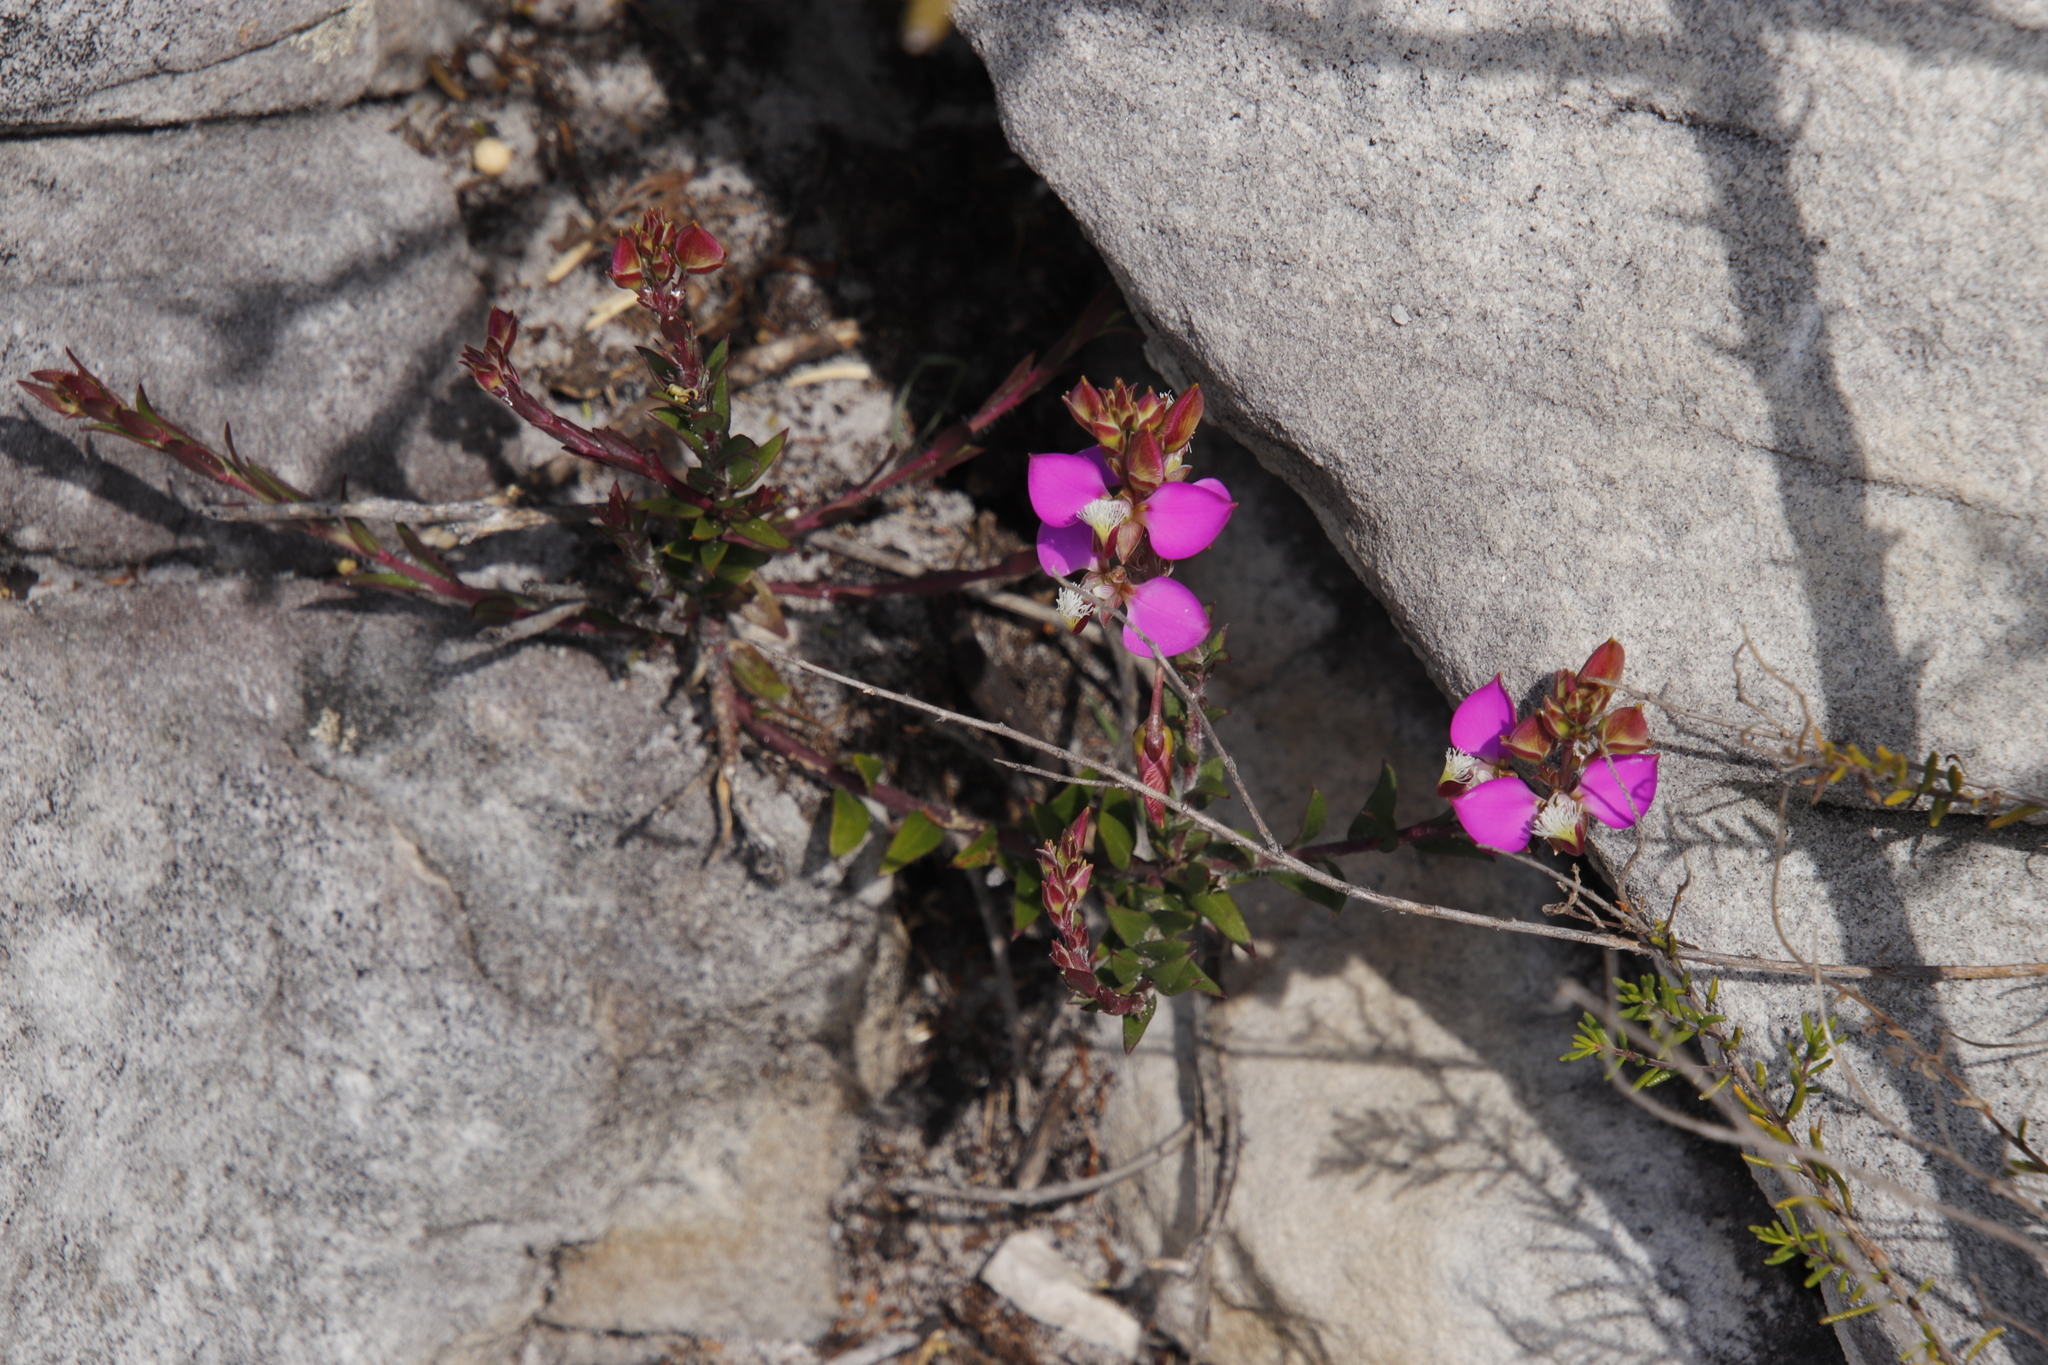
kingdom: Plantae
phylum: Tracheophyta
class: Magnoliopsida
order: Fabales
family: Polygalaceae
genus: Polygala
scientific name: Polygala bracteolata
